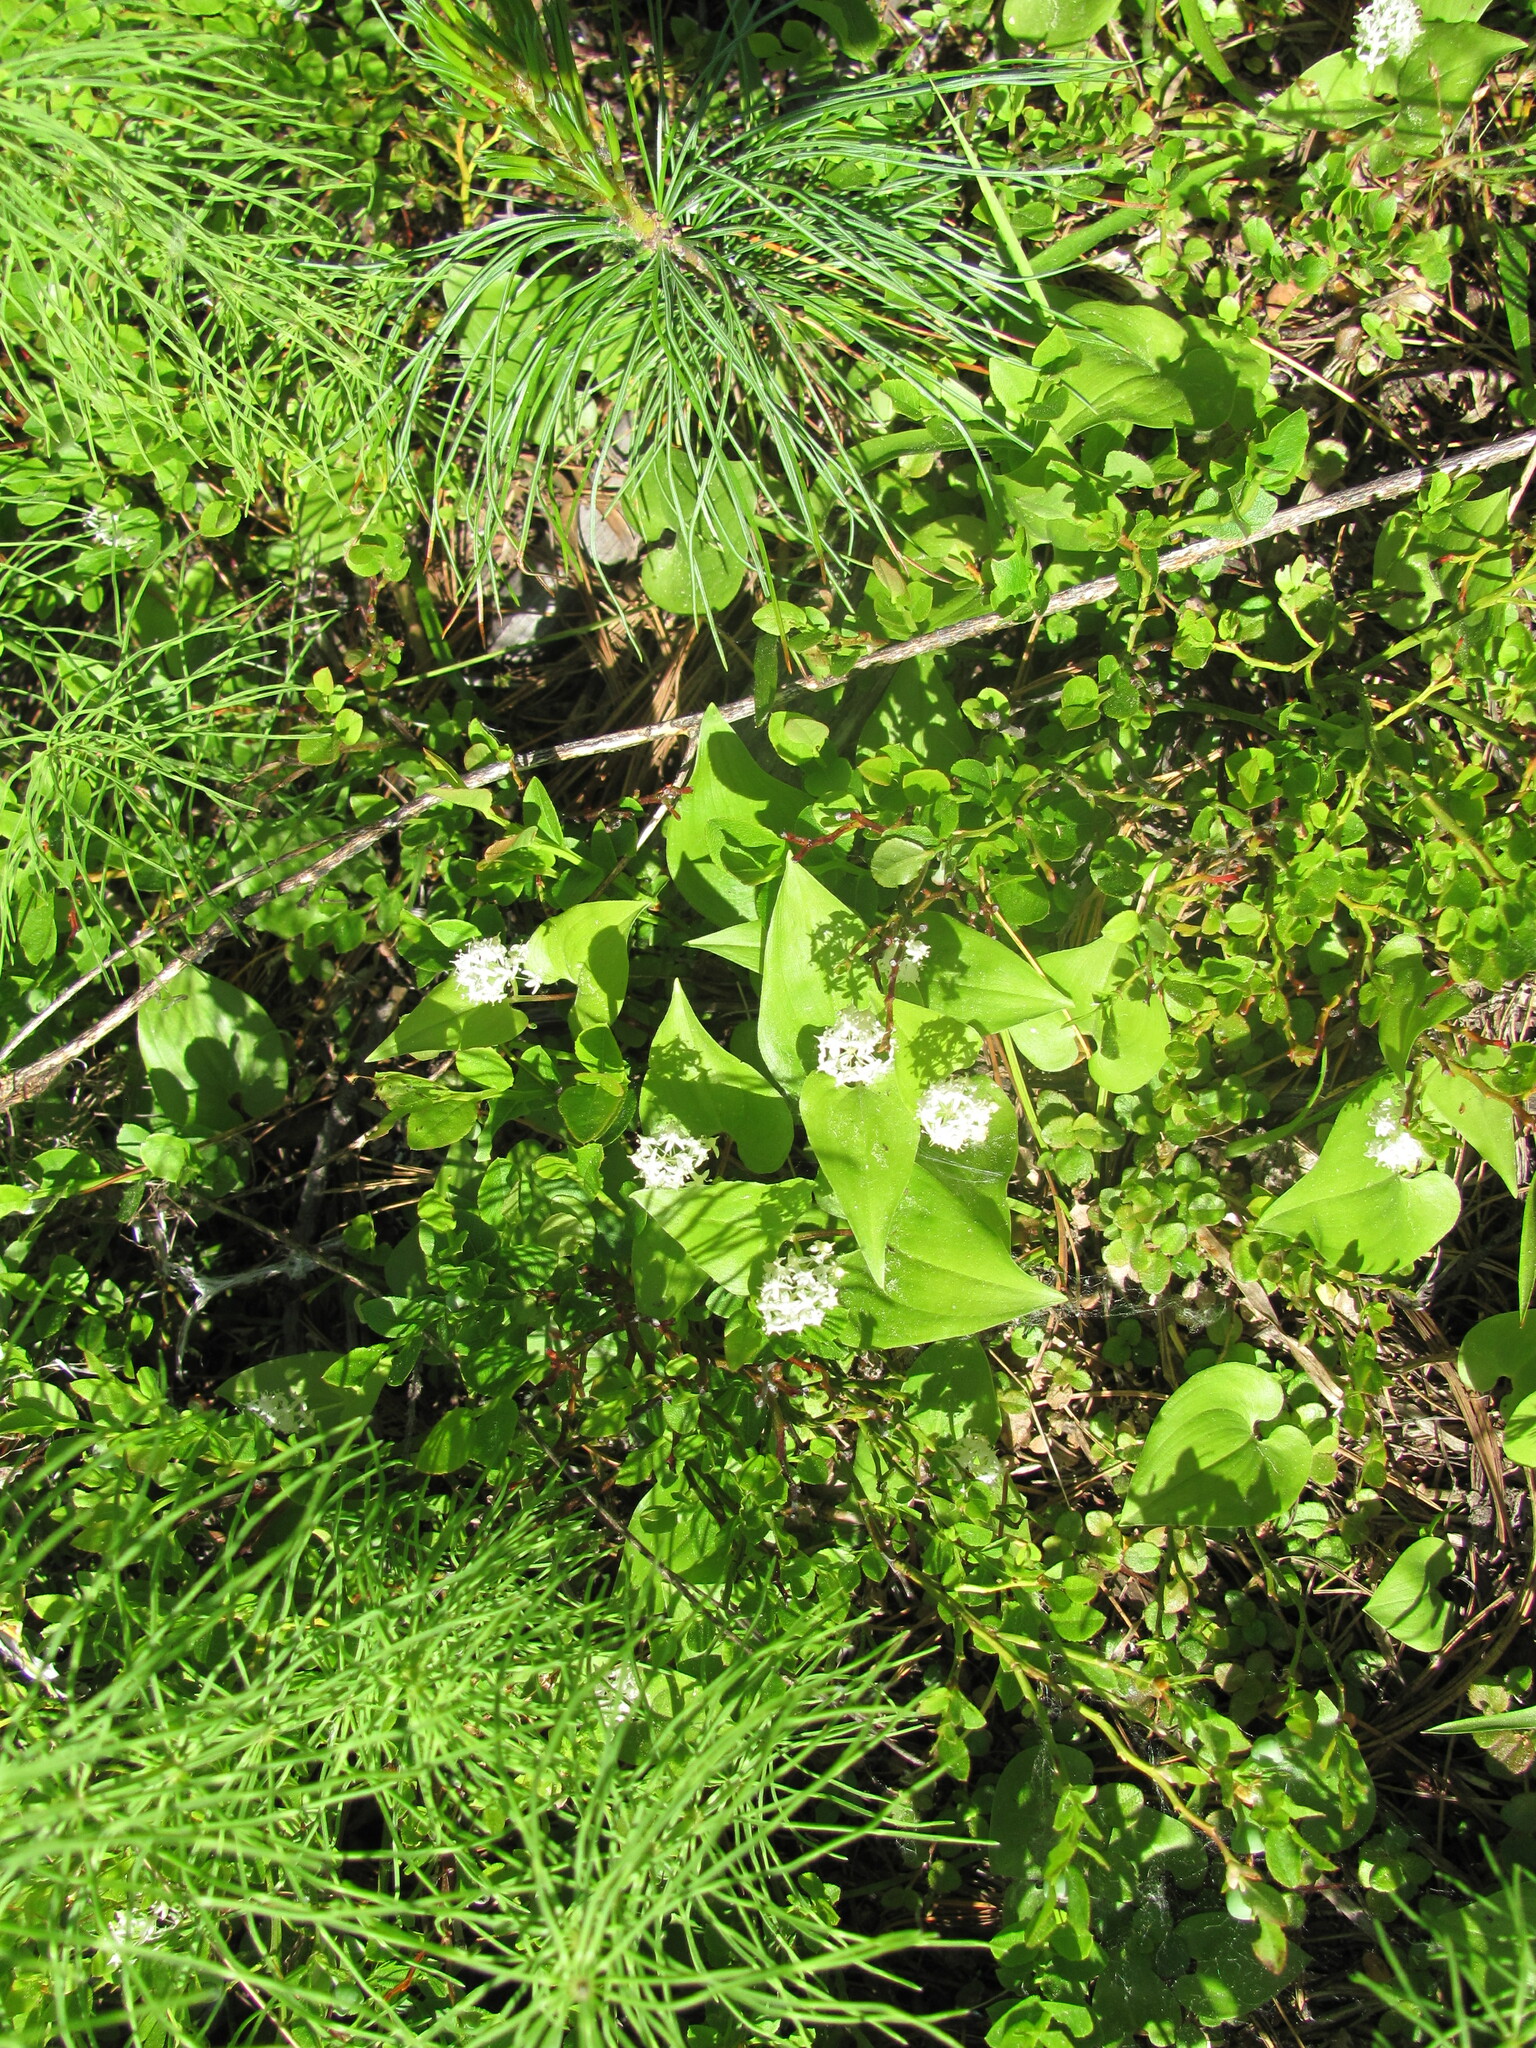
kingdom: Plantae
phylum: Tracheophyta
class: Liliopsida
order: Asparagales
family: Asparagaceae
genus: Maianthemum
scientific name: Maianthemum bifolium
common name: May lily
